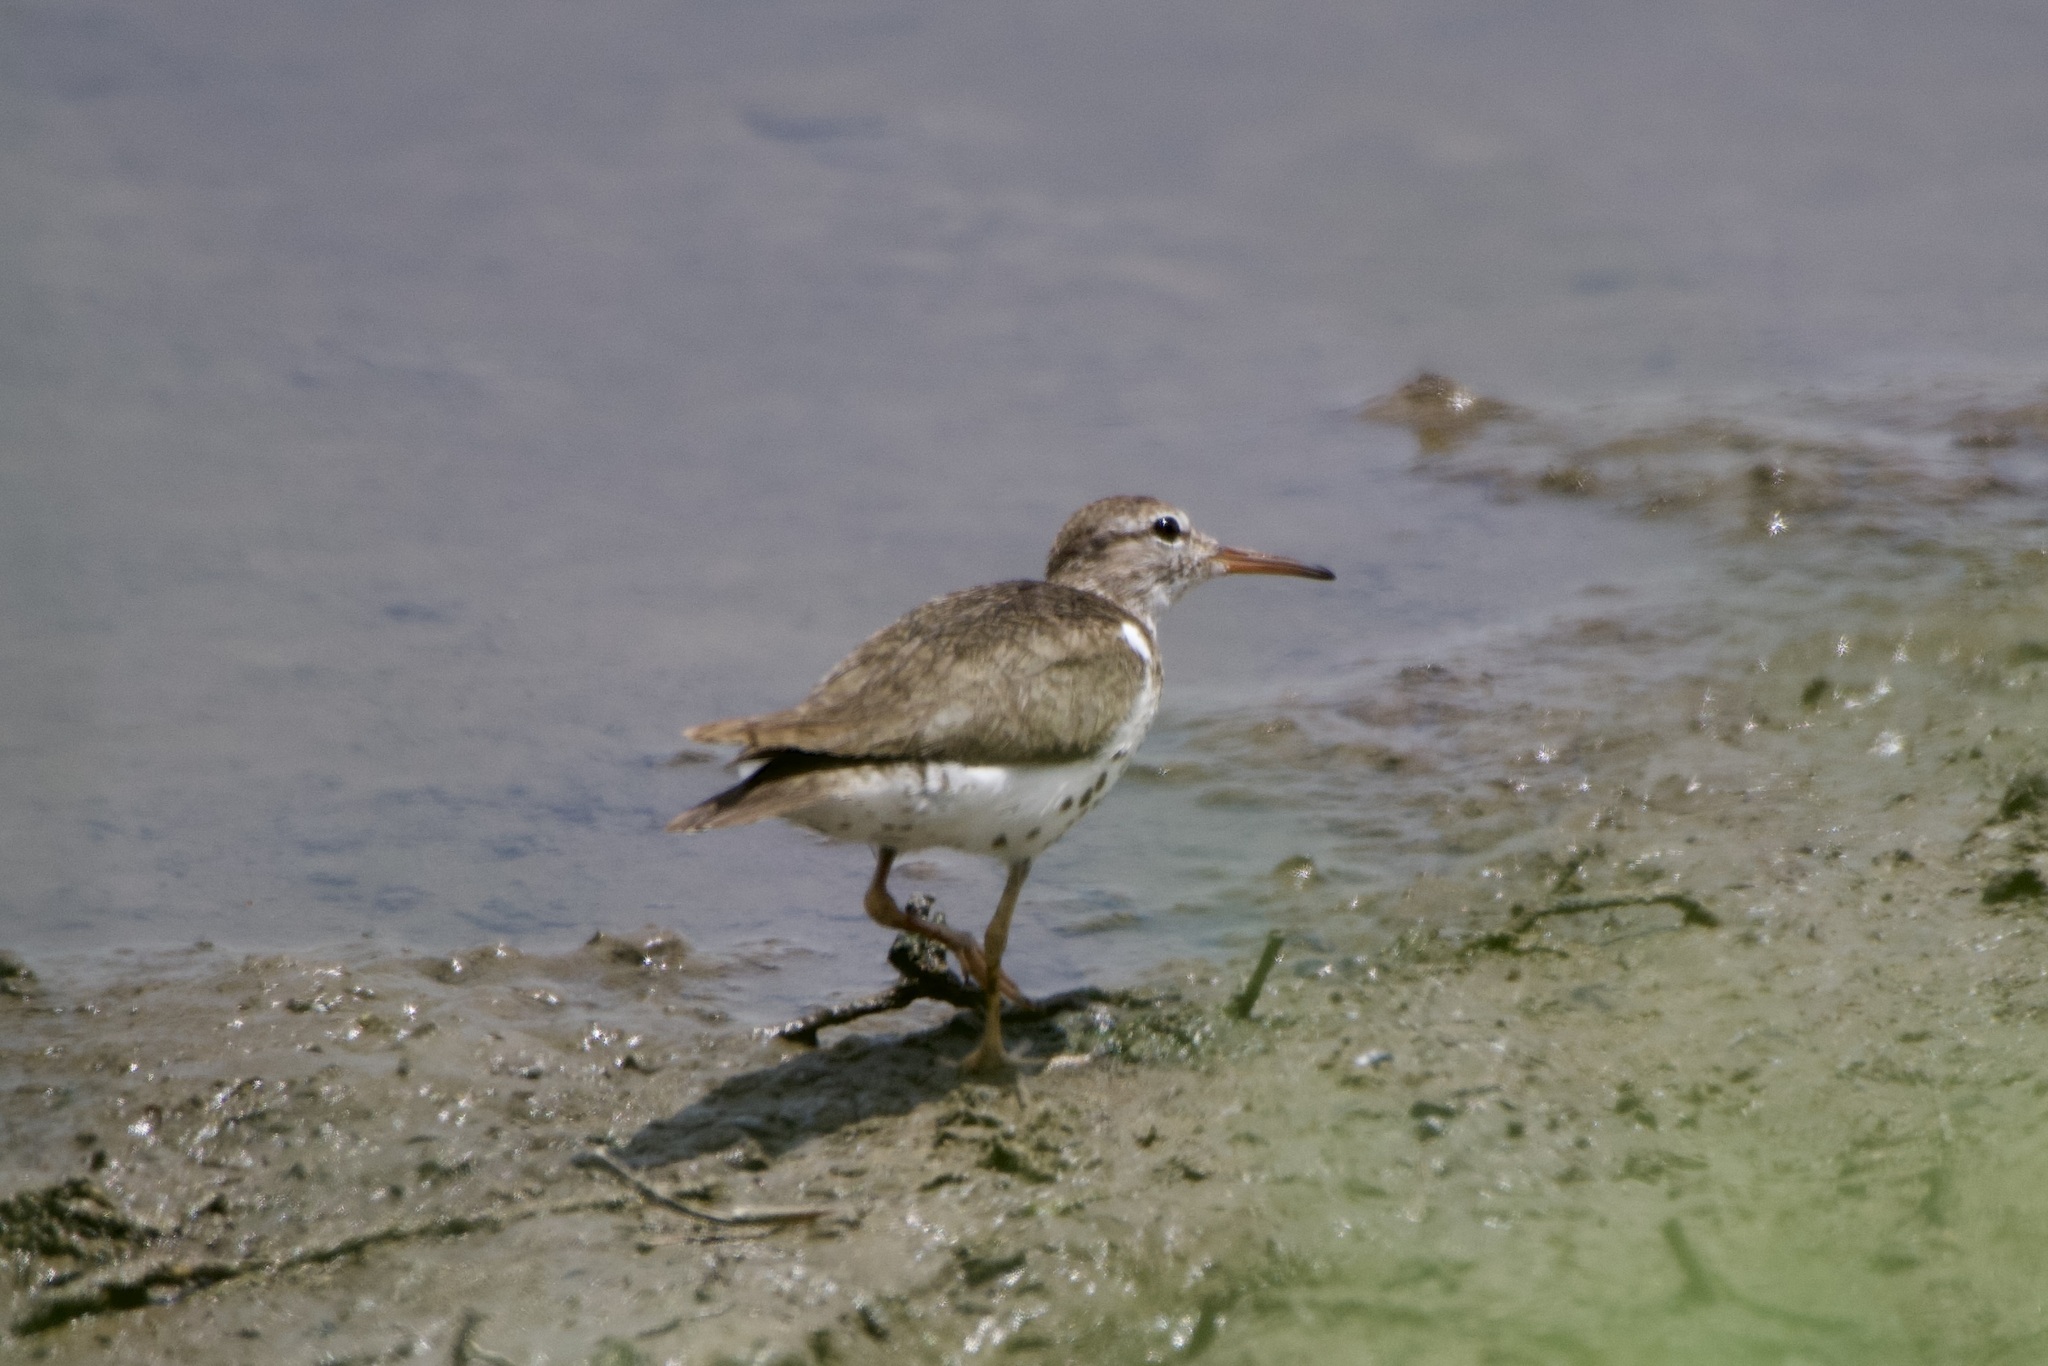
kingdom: Animalia
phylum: Chordata
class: Aves
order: Charadriiformes
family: Scolopacidae
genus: Actitis
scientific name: Actitis macularius
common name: Spotted sandpiper
